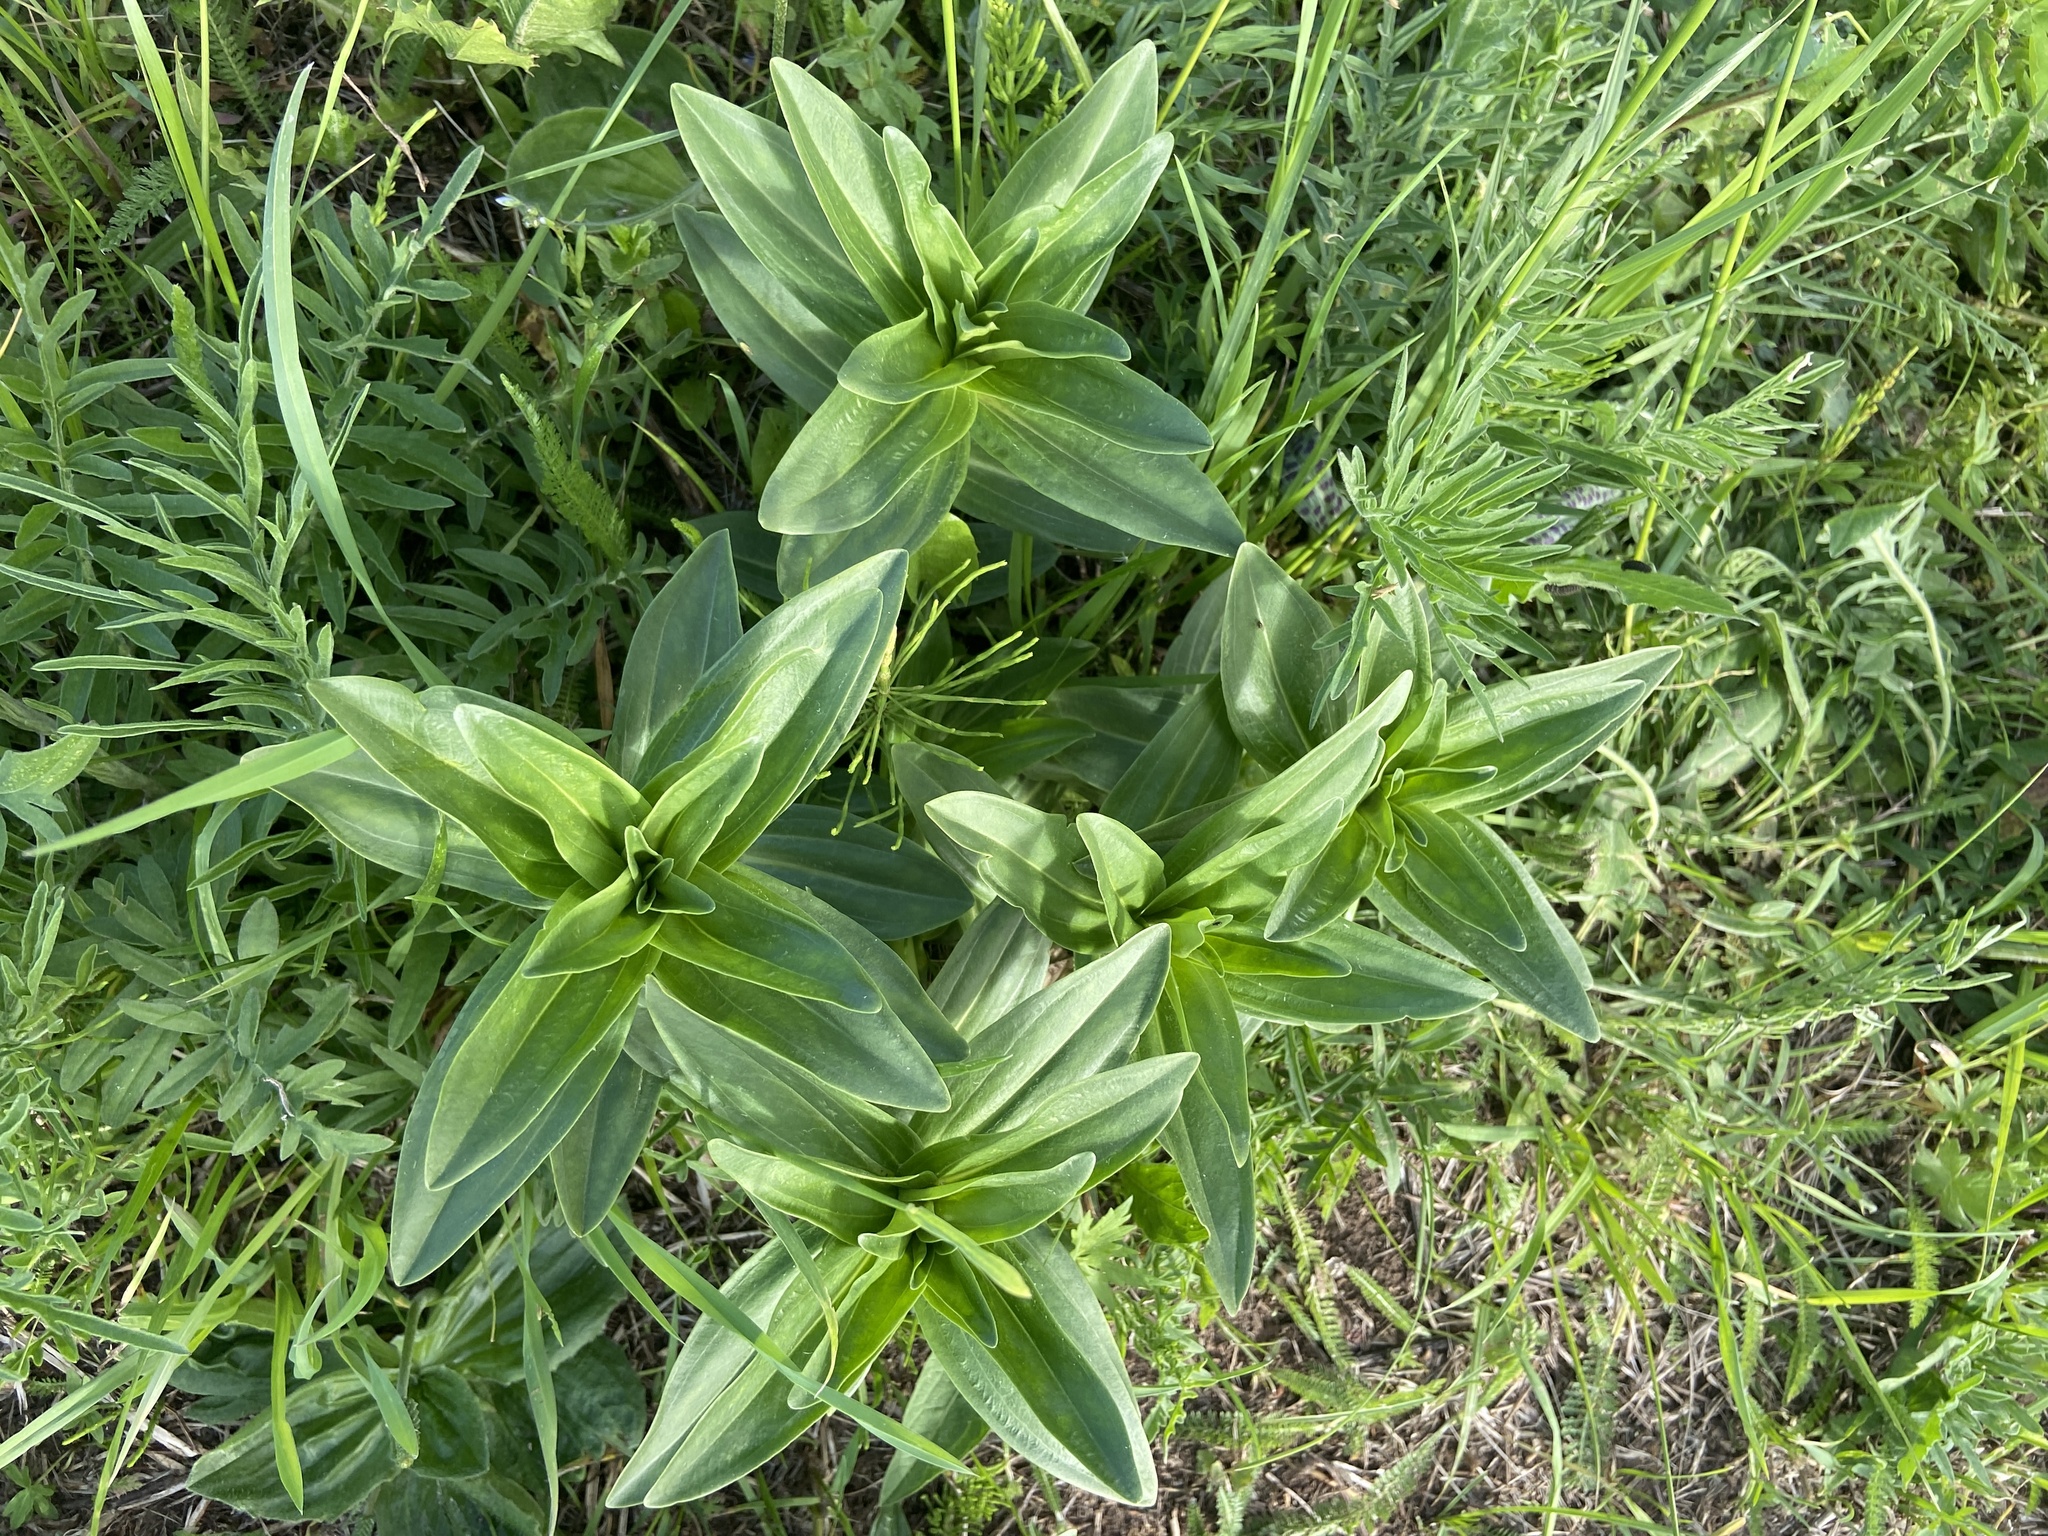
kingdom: Plantae
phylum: Tracheophyta
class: Magnoliopsida
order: Gentianales
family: Gentianaceae
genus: Gentiana
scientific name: Gentiana cruciata
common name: Cross gentian
